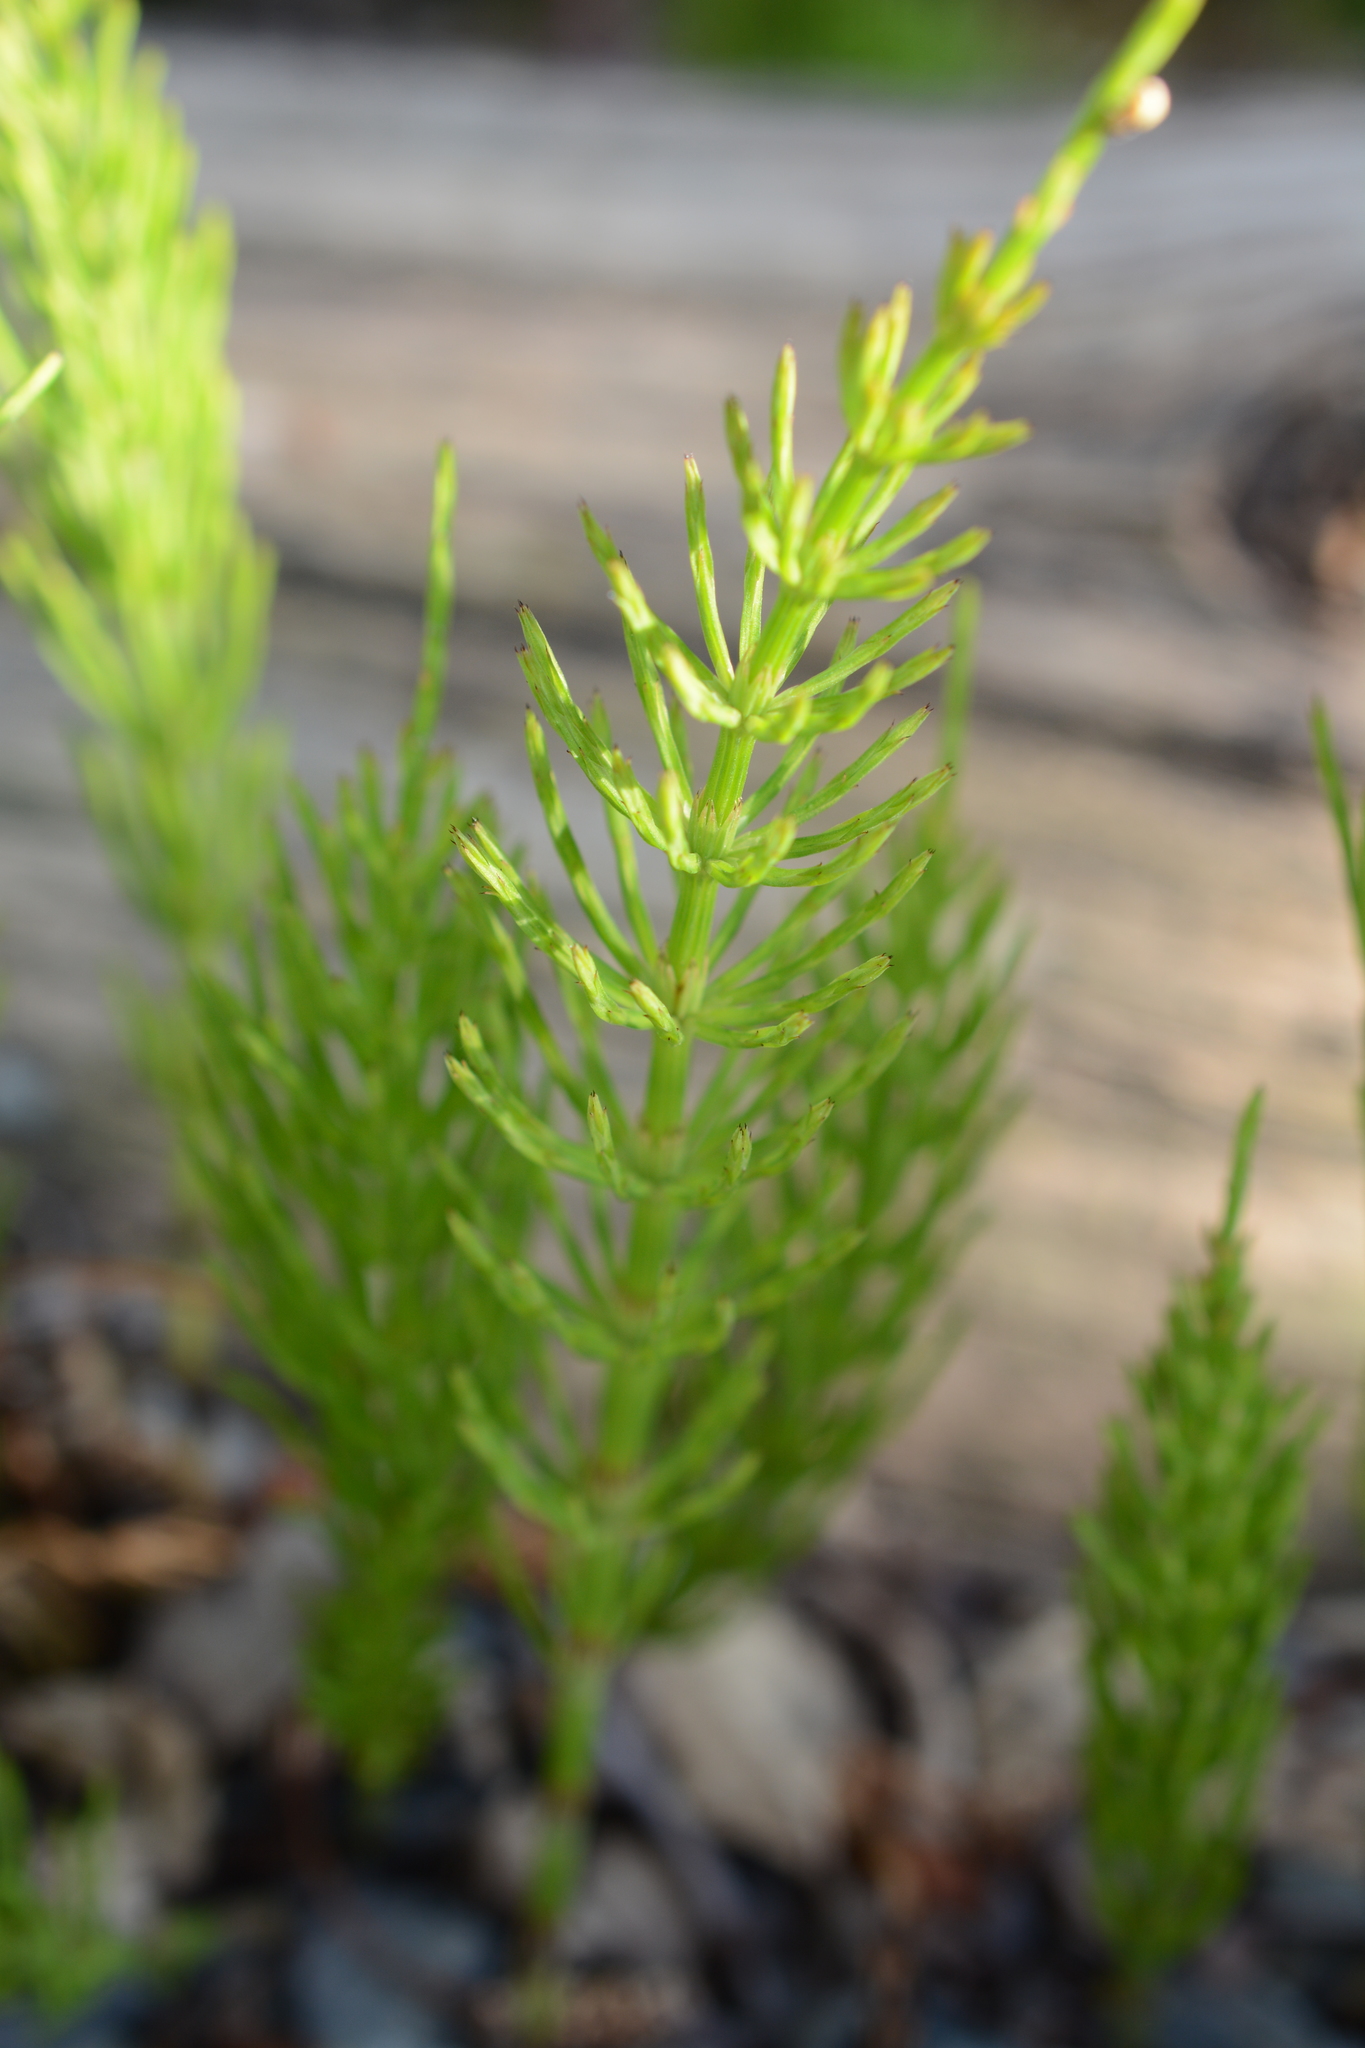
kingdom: Plantae
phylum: Tracheophyta
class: Polypodiopsida
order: Equisetales
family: Equisetaceae
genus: Equisetum
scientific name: Equisetum arvense
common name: Field horsetail
